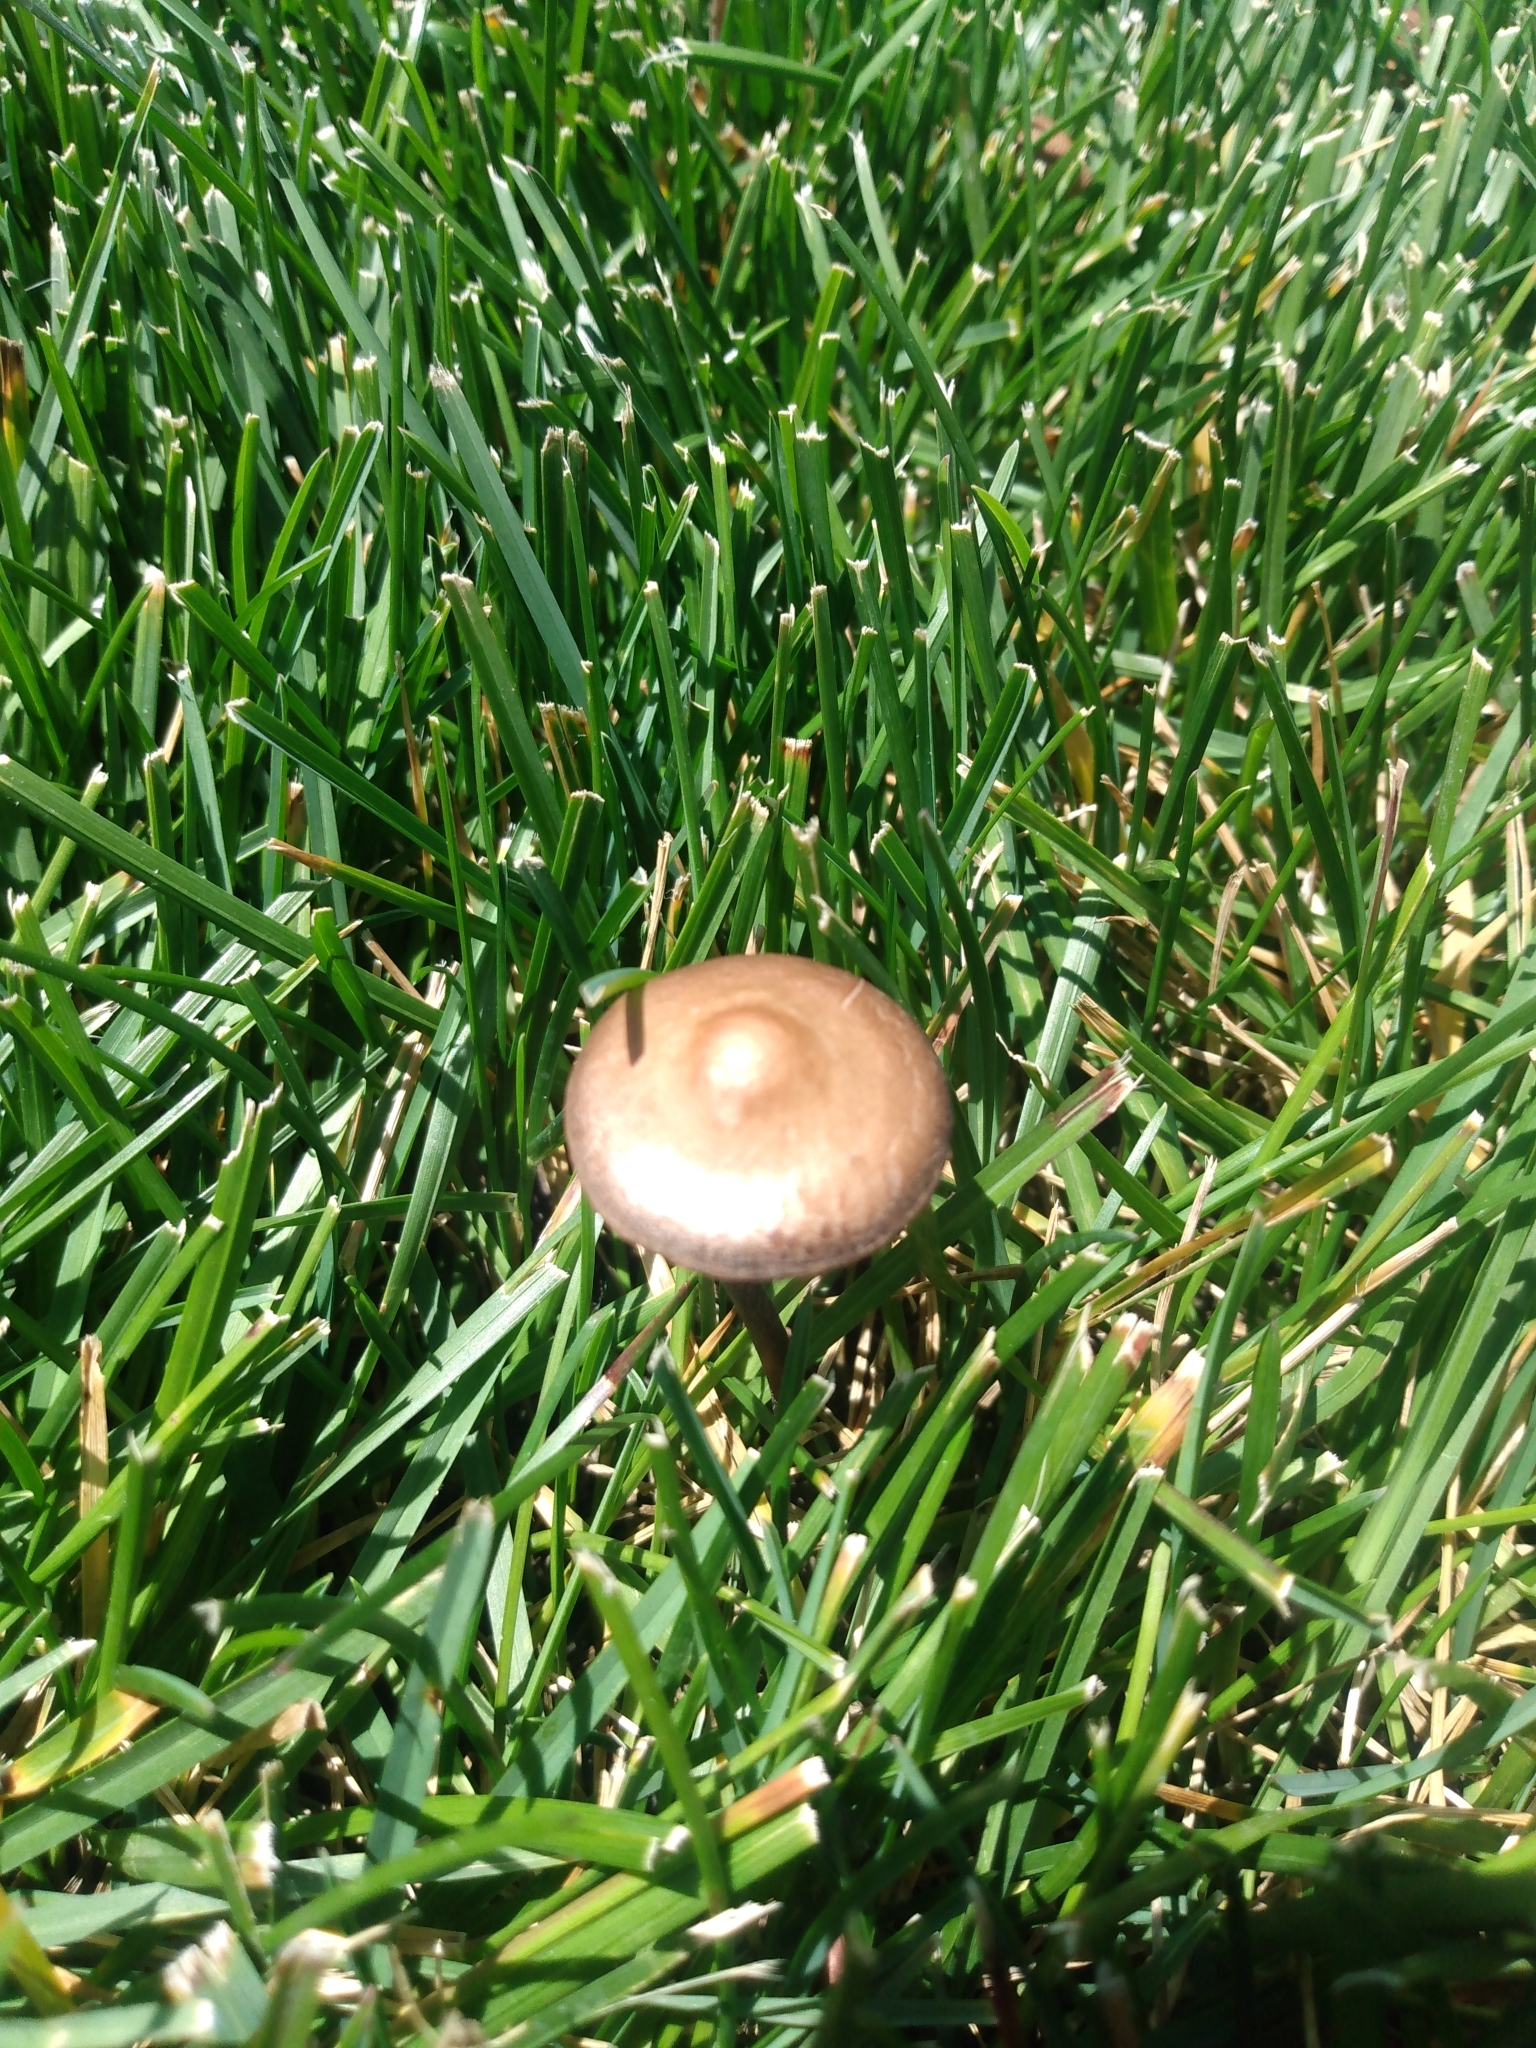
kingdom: Fungi
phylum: Basidiomycota
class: Agaricomycetes
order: Agaricales
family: Bolbitiaceae
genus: Panaeolina
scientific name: Panaeolina foenisecii
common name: Brown hay cap
